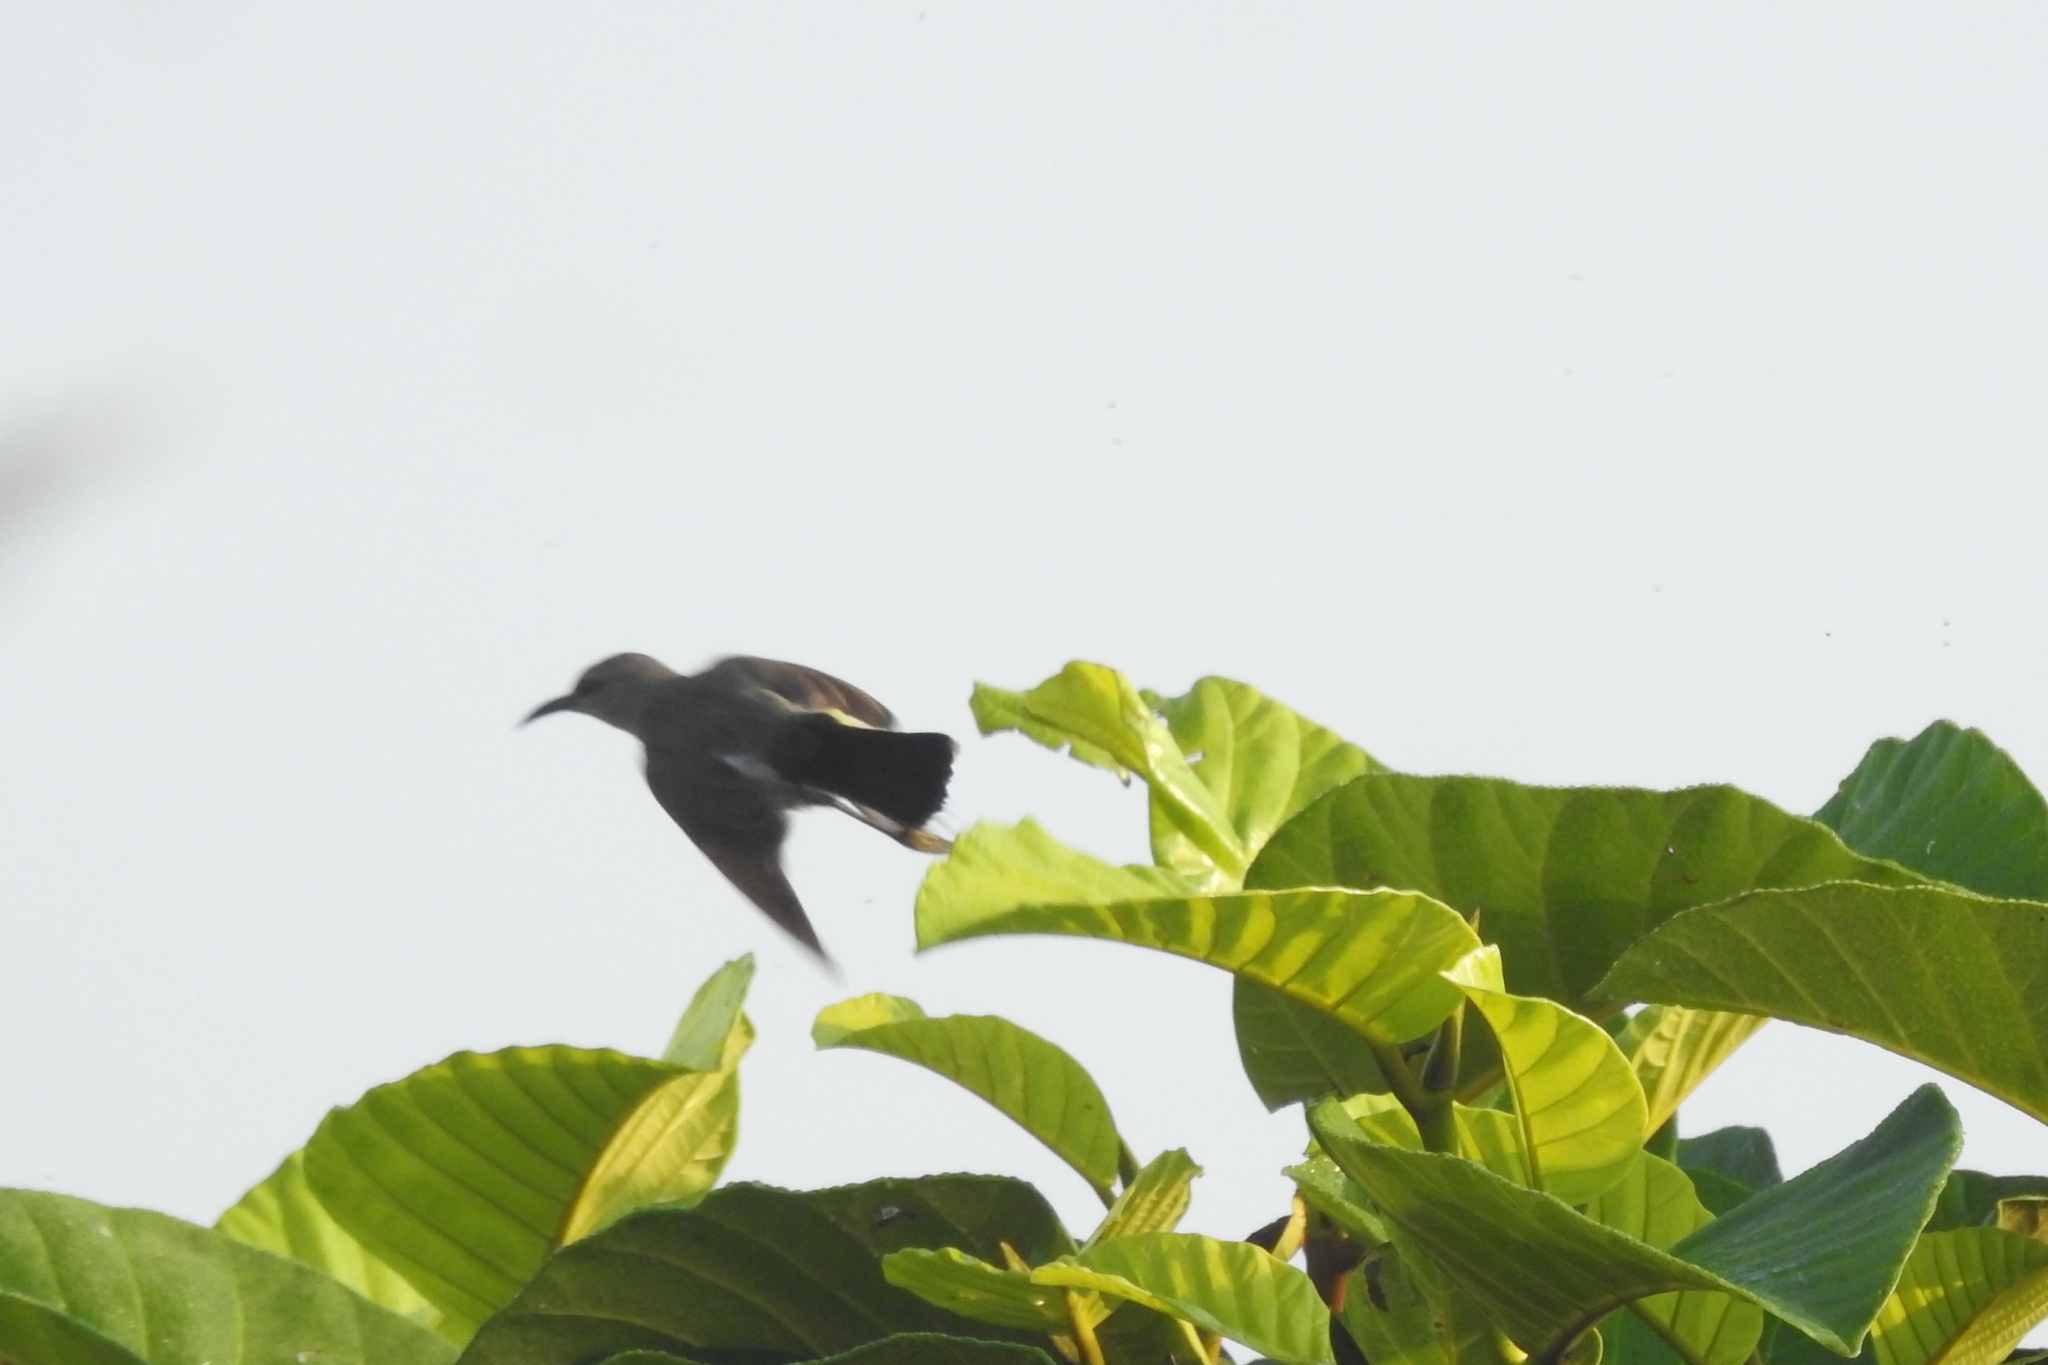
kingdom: Animalia
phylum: Chordata
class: Aves
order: Passeriformes
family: Nectariniidae
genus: Cinnyris
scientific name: Cinnyris asiaticus
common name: Purple sunbird
